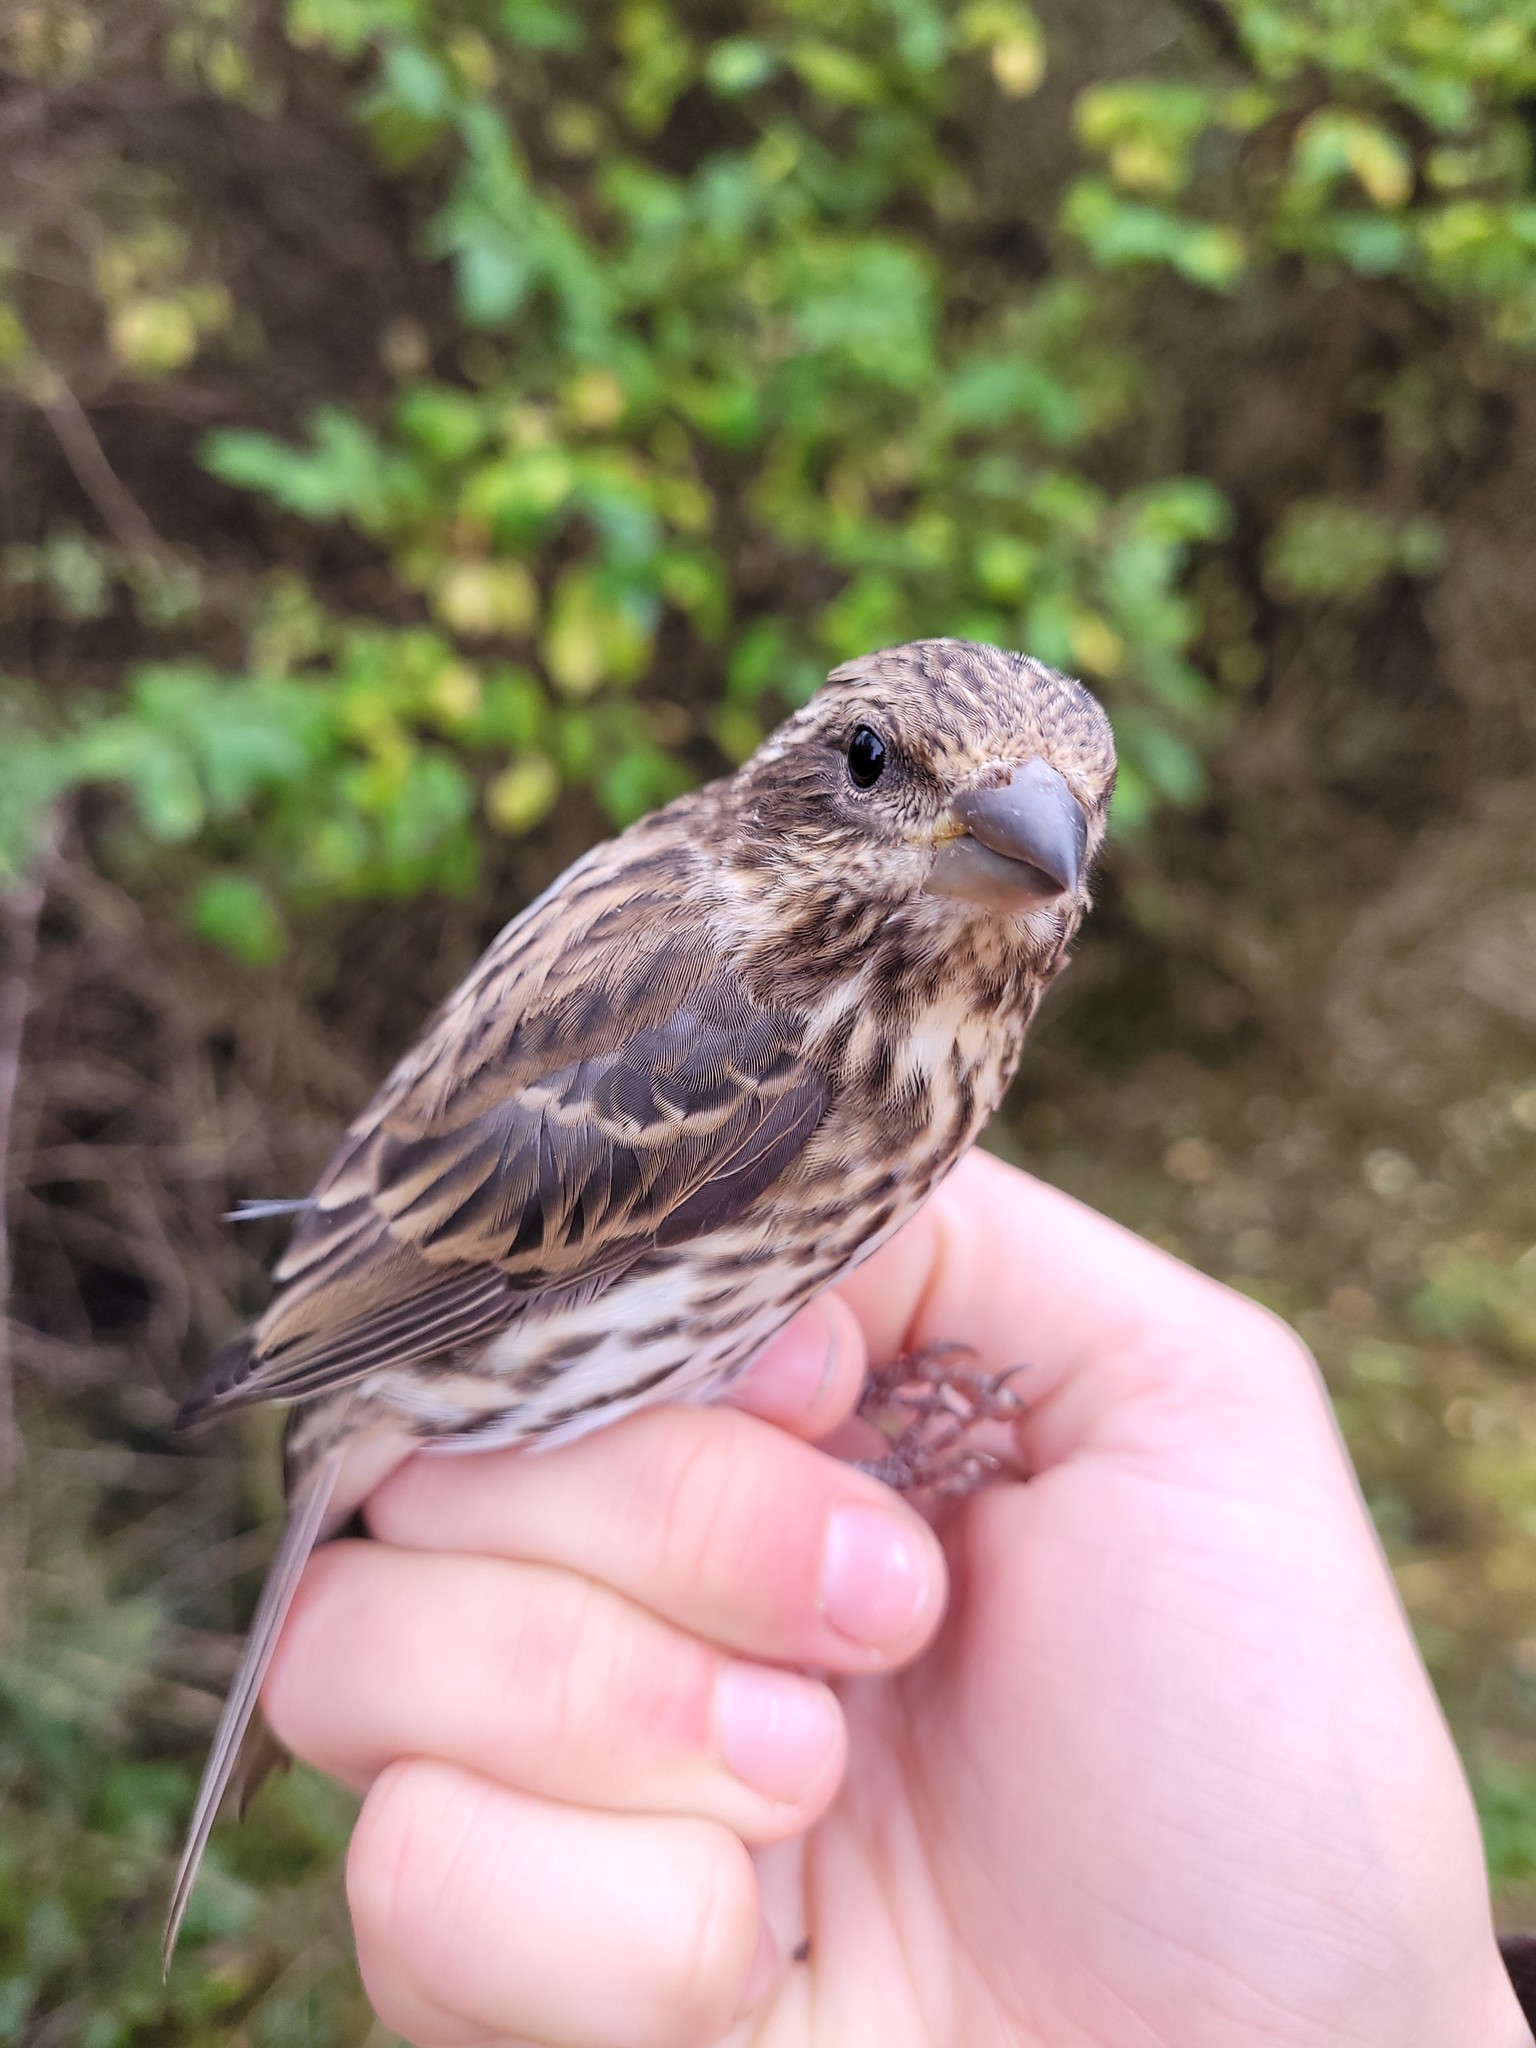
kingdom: Animalia
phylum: Chordata
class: Aves
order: Passeriformes
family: Fringillidae
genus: Haemorhous
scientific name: Haemorhous purpureus
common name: Purple finch
